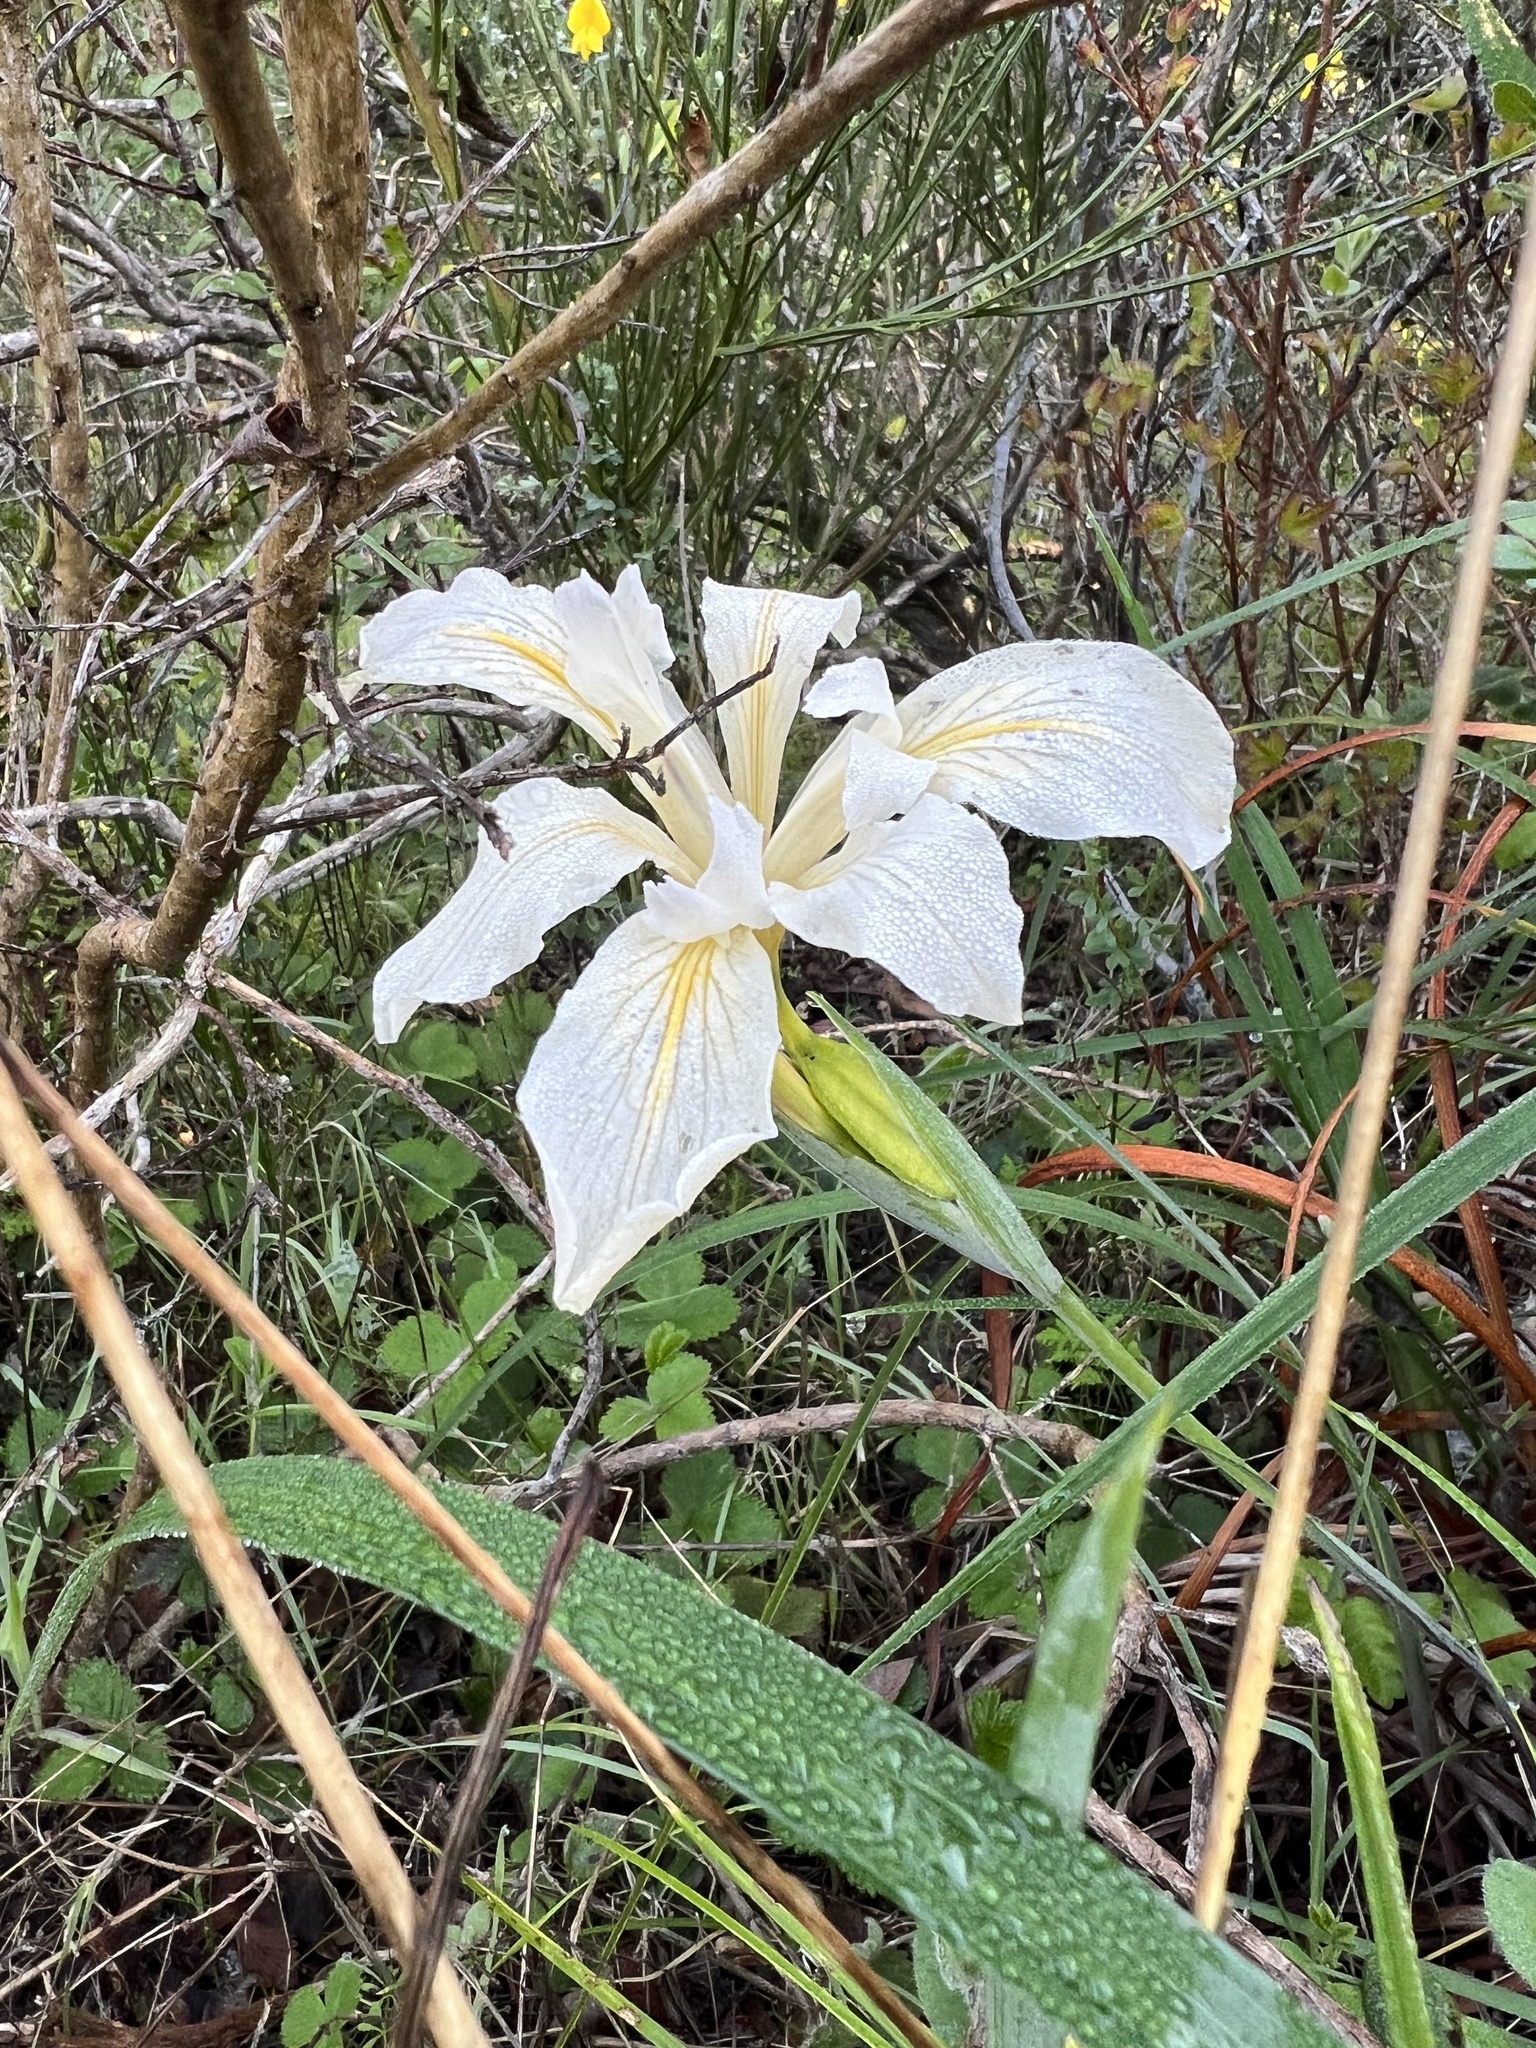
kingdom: Plantae
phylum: Tracheophyta
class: Liliopsida
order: Asparagales
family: Iridaceae
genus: Iris
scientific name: Iris douglasiana
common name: Marin iris
